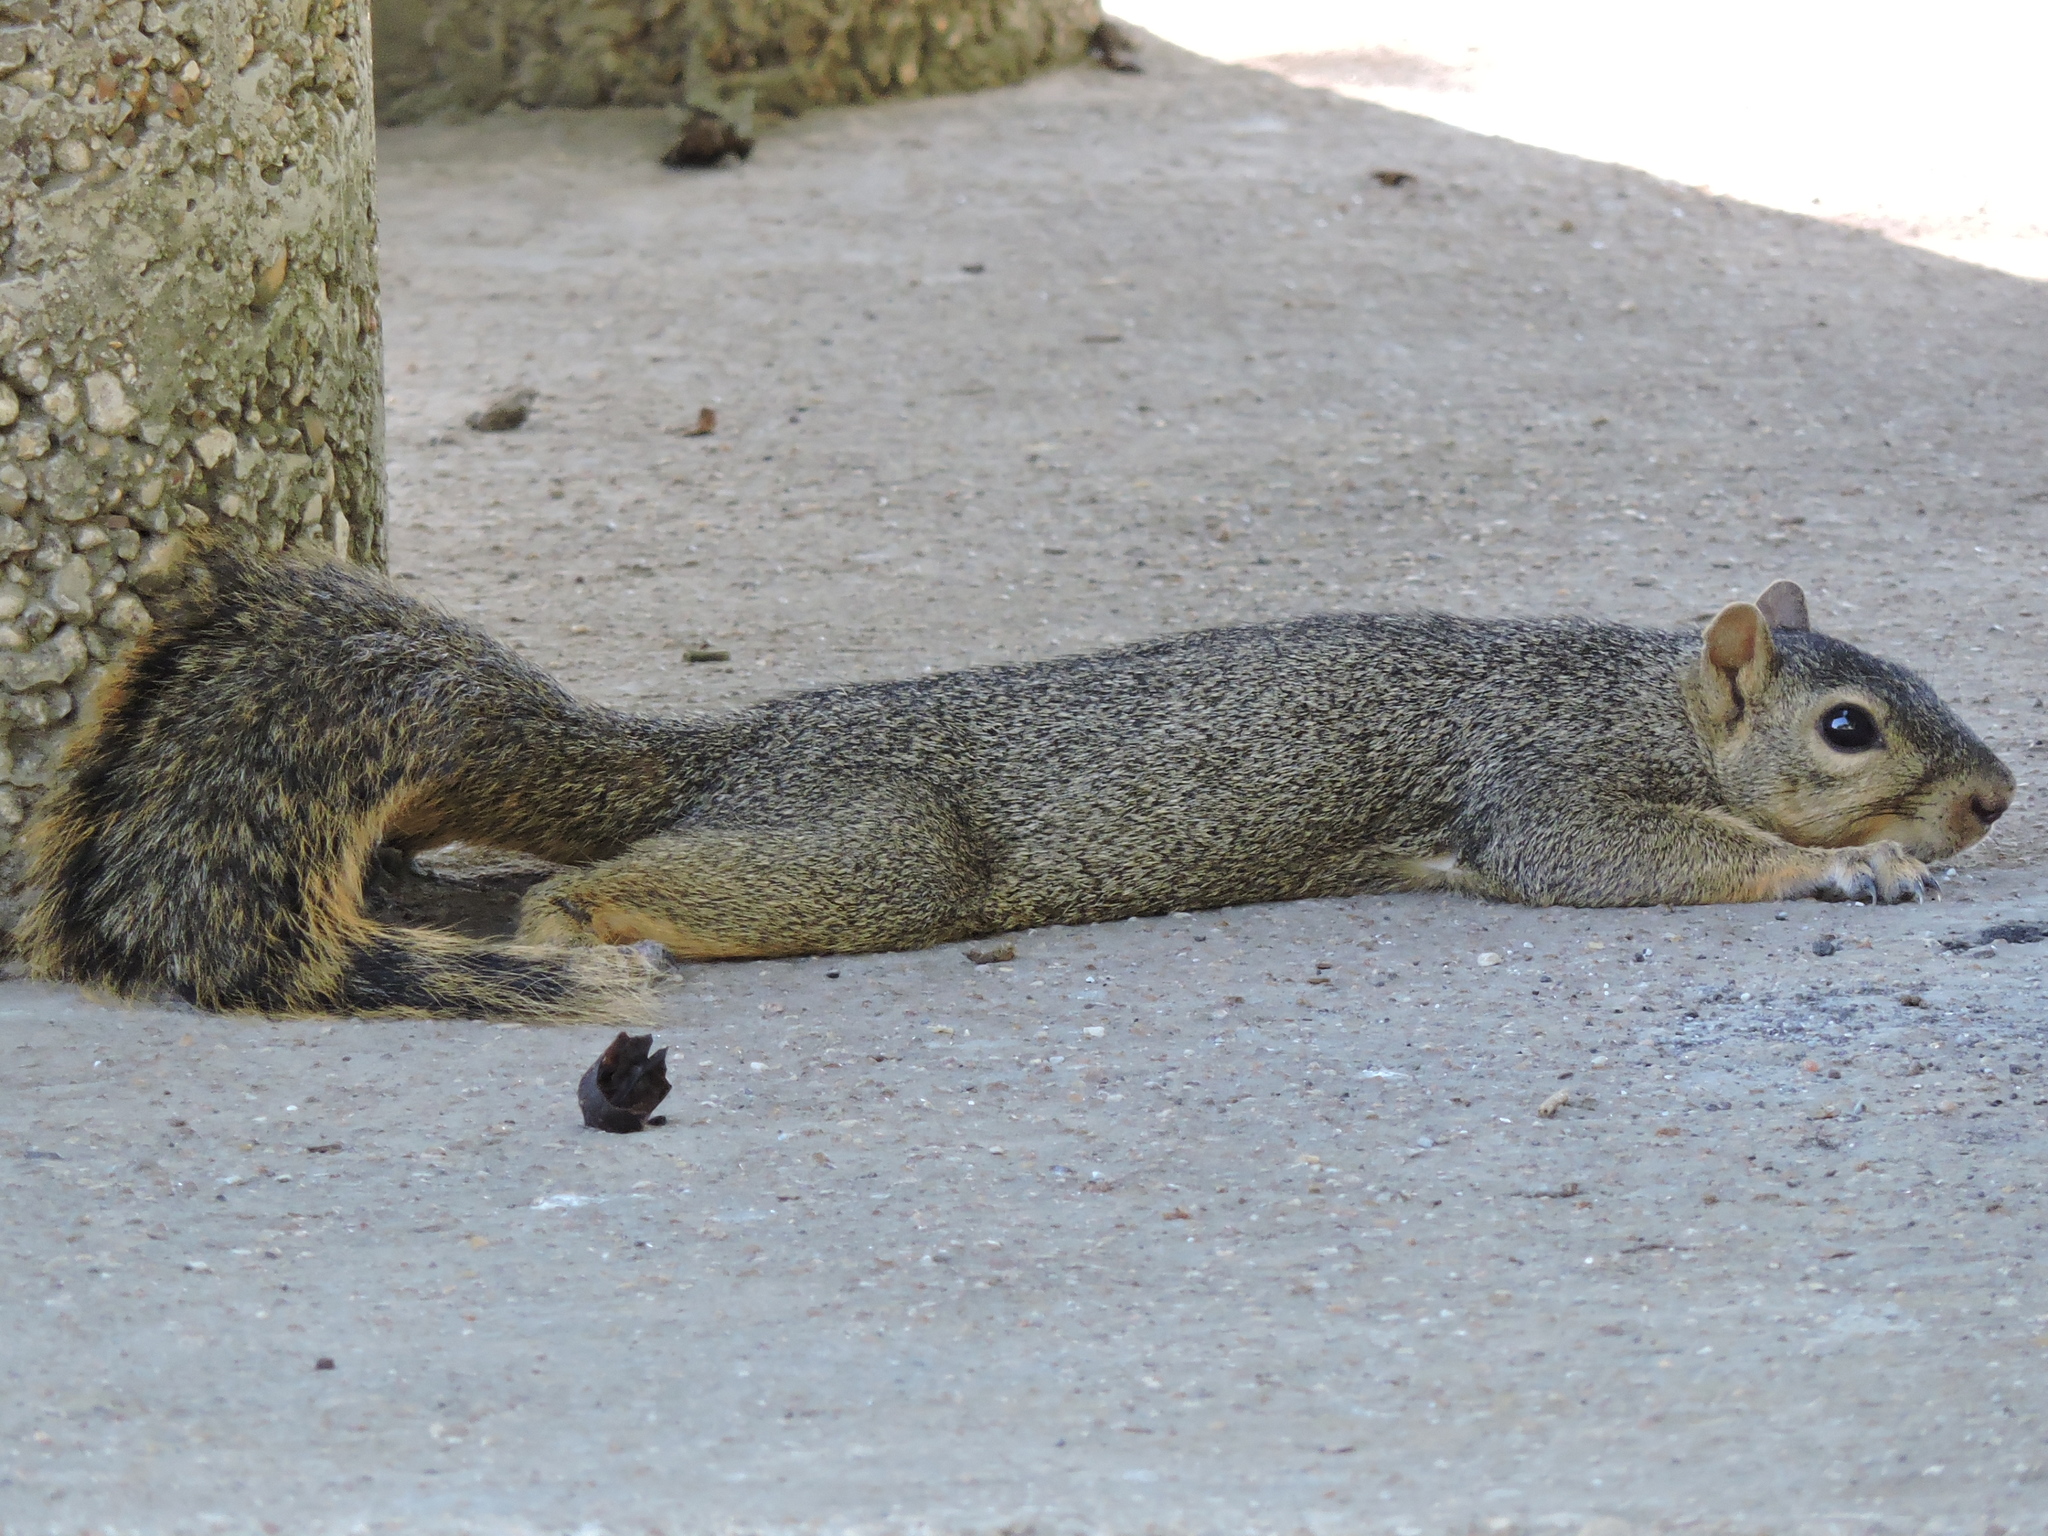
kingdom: Animalia
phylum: Chordata
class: Mammalia
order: Rodentia
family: Sciuridae
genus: Sciurus
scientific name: Sciurus niger
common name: Fox squirrel
